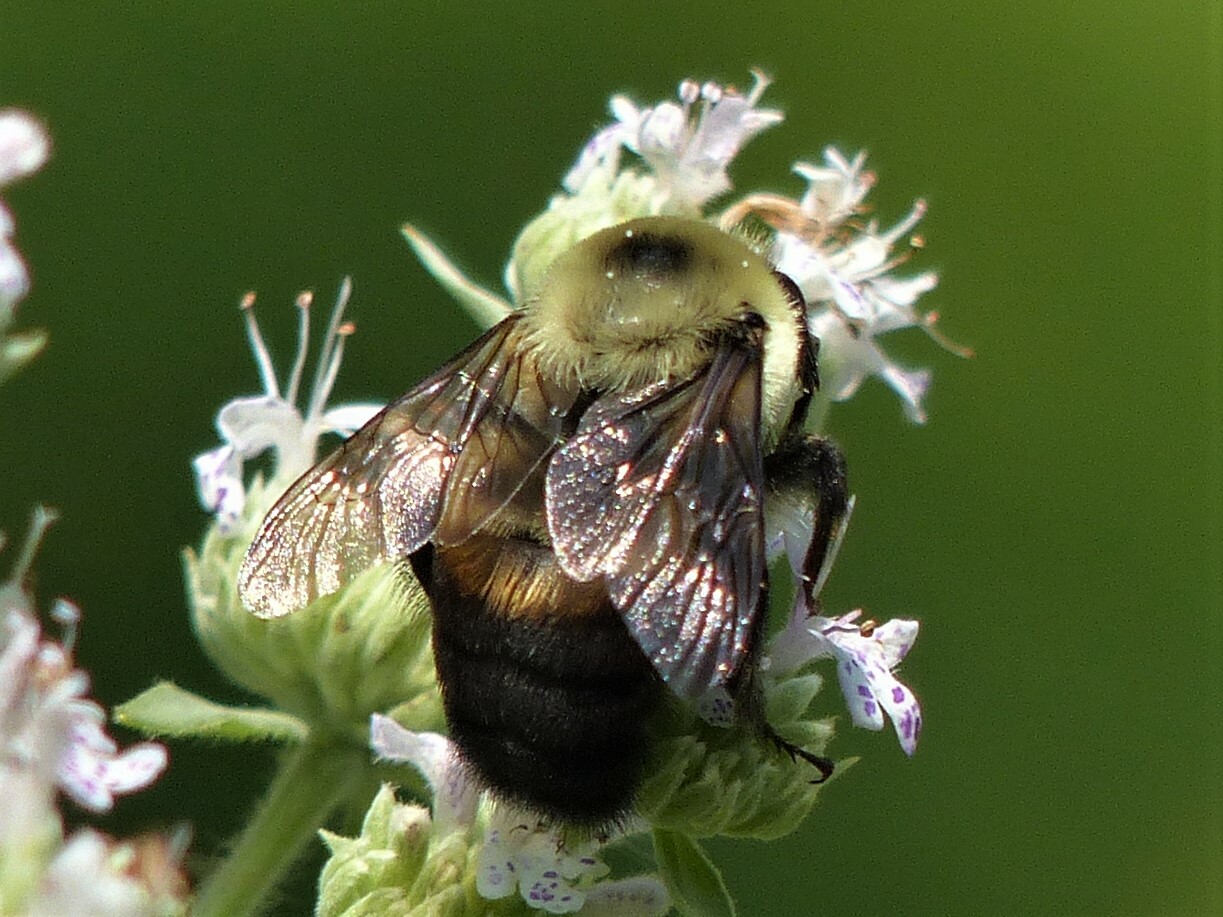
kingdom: Animalia
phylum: Arthropoda
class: Insecta
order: Hymenoptera
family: Apidae
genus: Bombus
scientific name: Bombus griseocollis
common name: Brown-belted bumble bee
